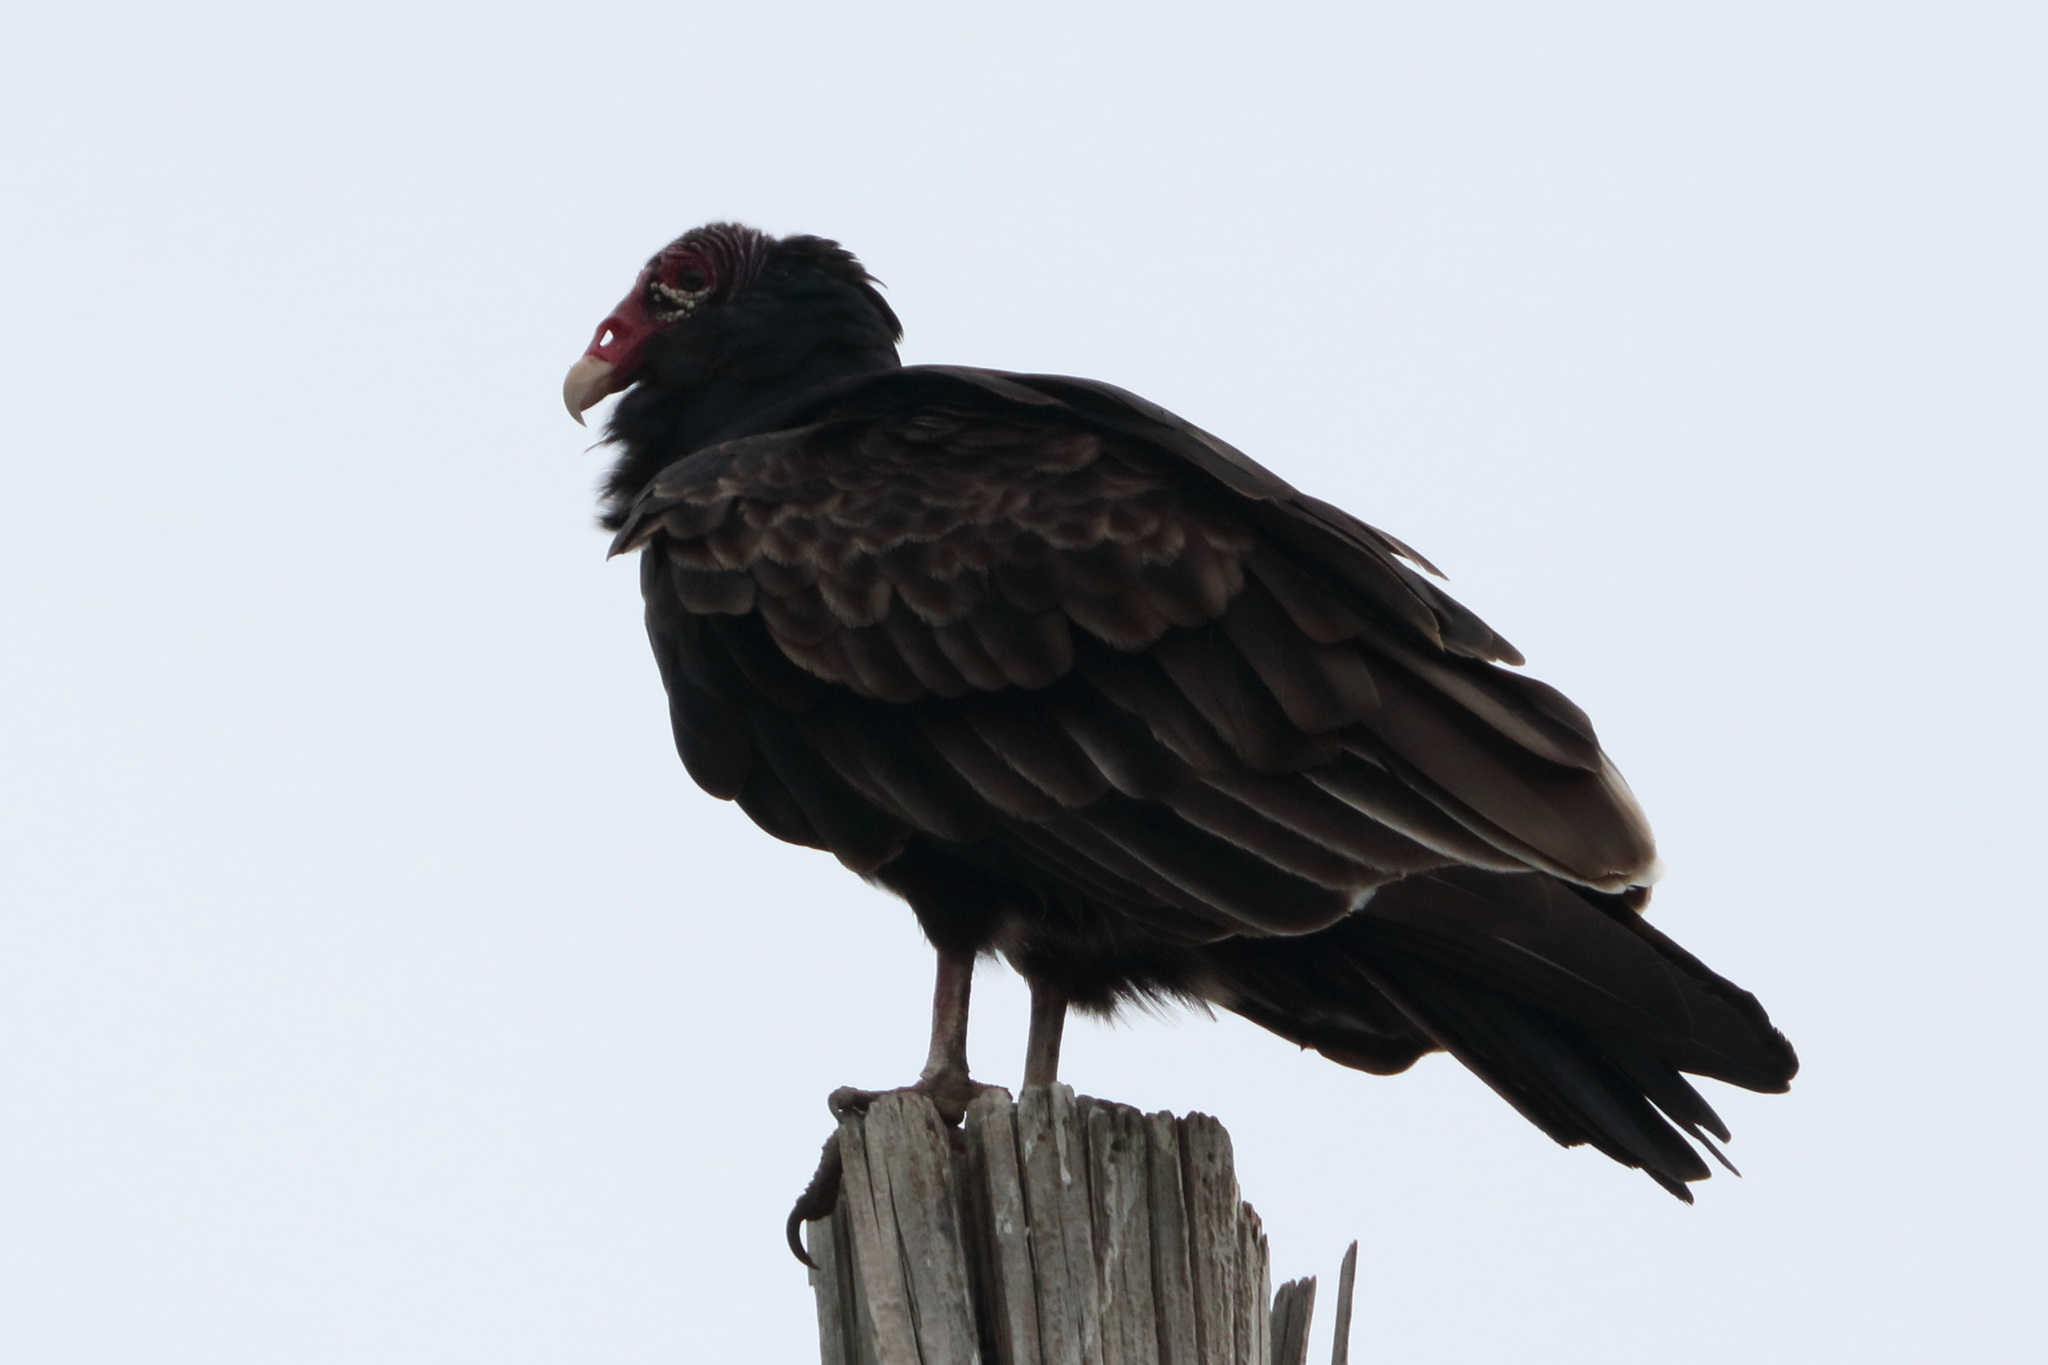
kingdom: Animalia
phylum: Chordata
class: Aves
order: Accipitriformes
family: Cathartidae
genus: Cathartes
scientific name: Cathartes aura
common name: Turkey vulture
